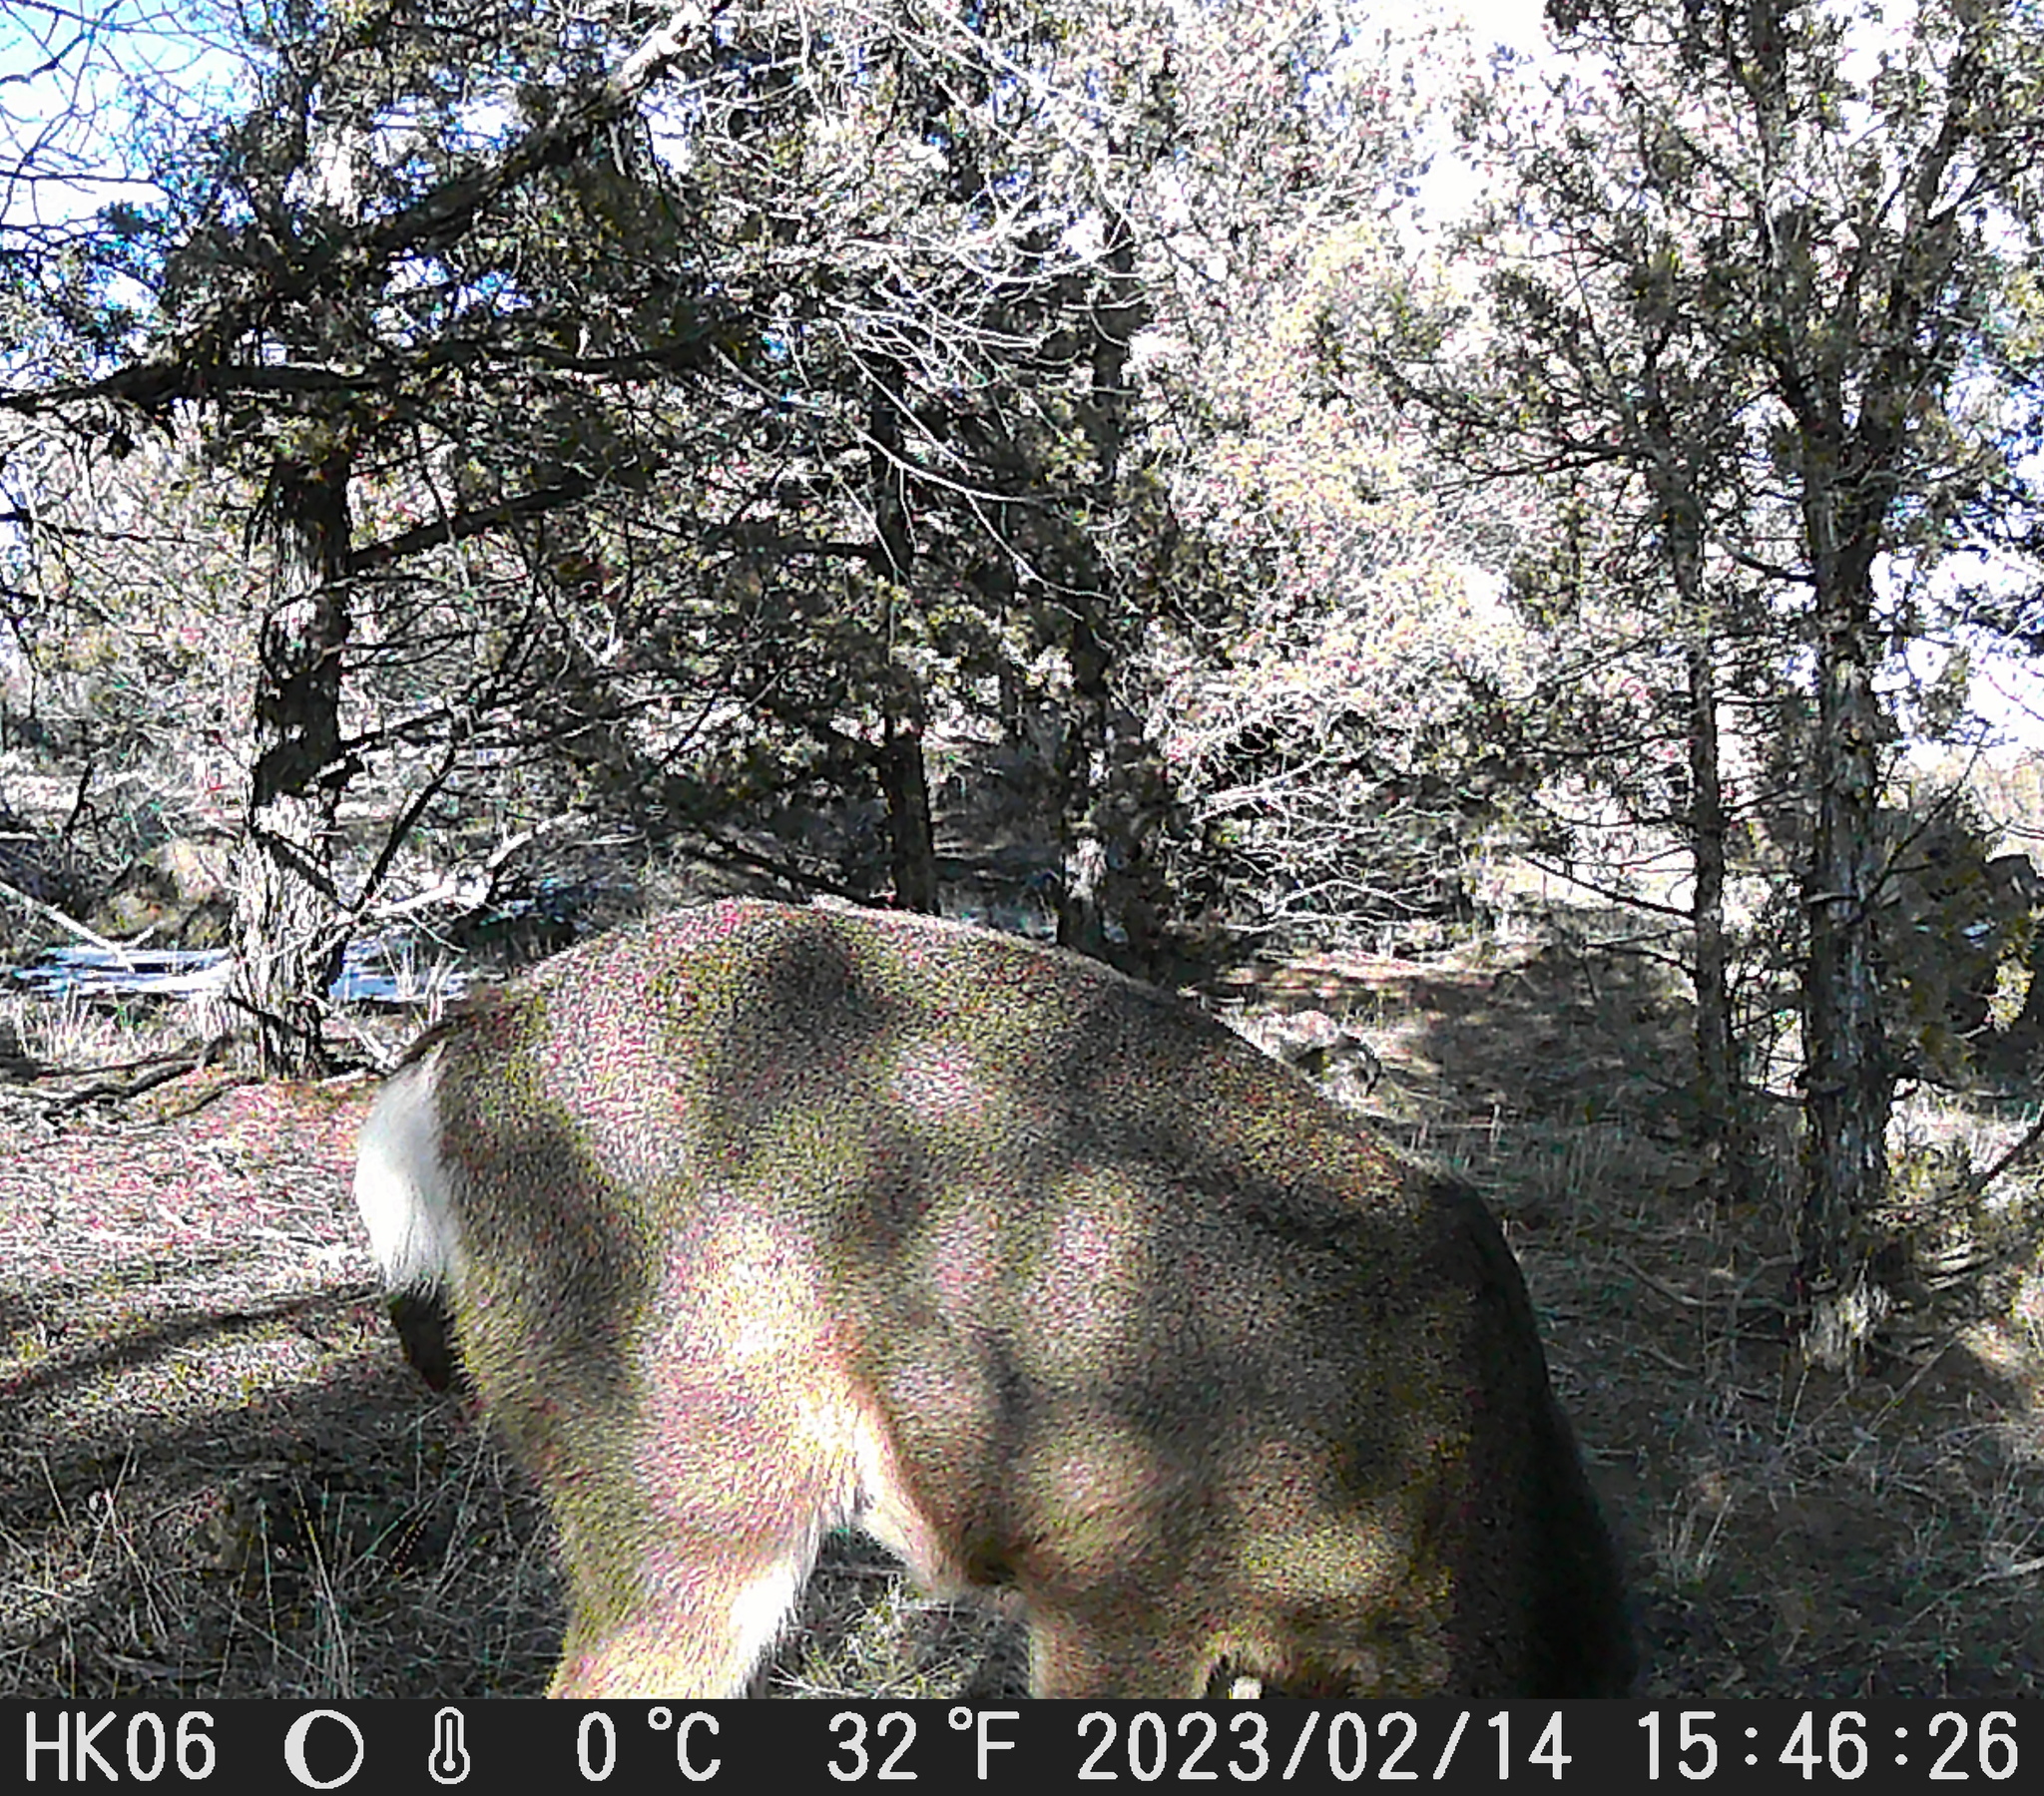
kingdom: Animalia
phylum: Chordata
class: Mammalia
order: Artiodactyla
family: Cervidae
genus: Odocoileus
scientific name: Odocoileus hemionus
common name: Mule deer
